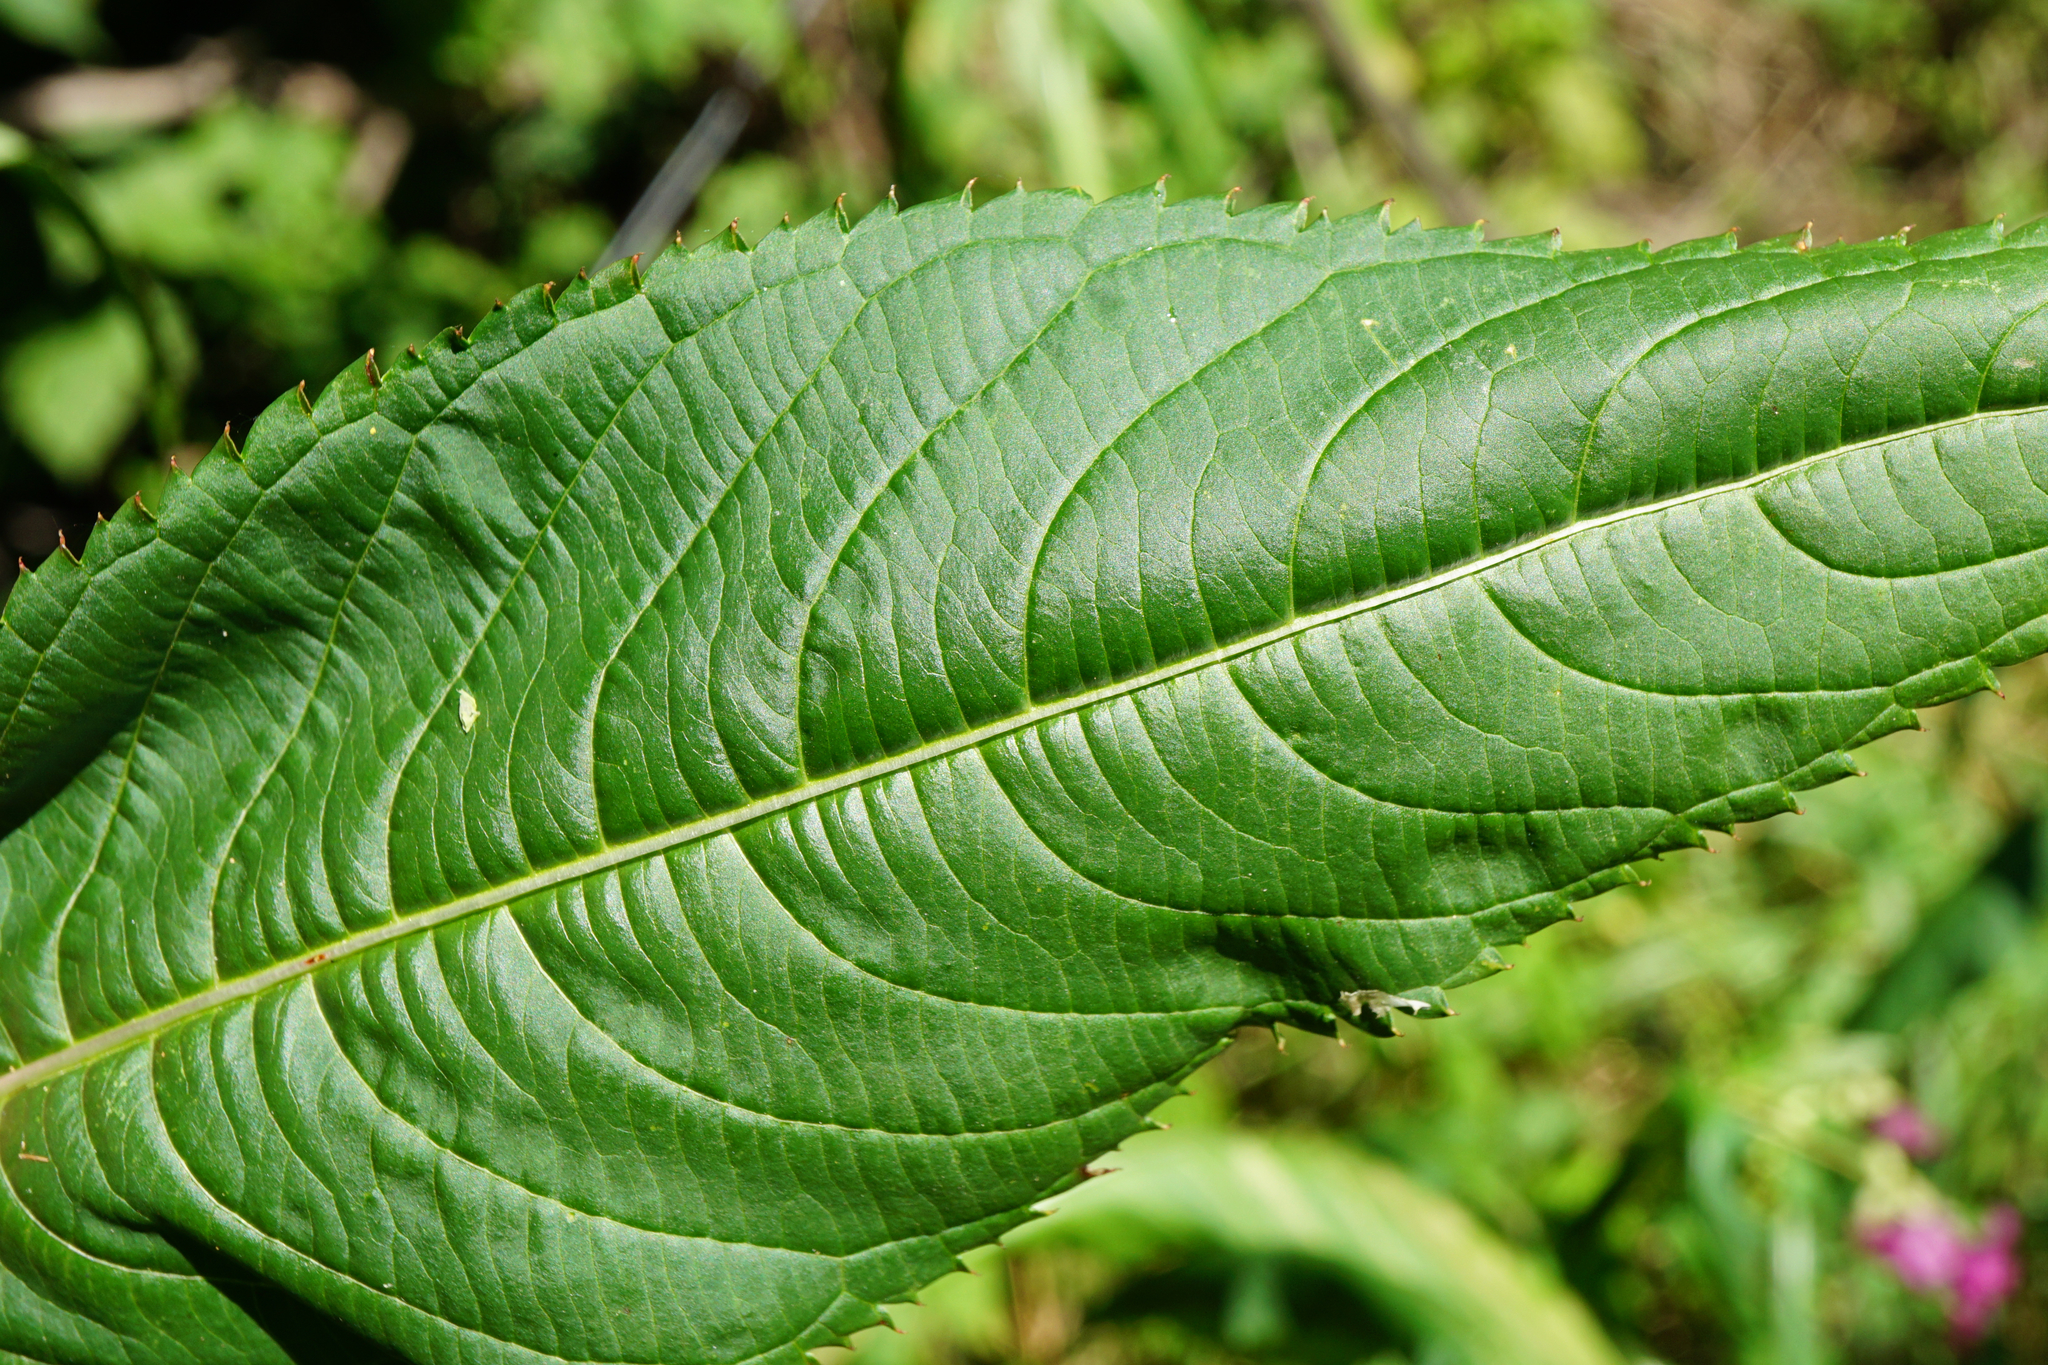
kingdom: Plantae
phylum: Tracheophyta
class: Magnoliopsida
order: Ericales
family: Balsaminaceae
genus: Impatiens
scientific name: Impatiens glandulifera
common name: Himalayan balsam
